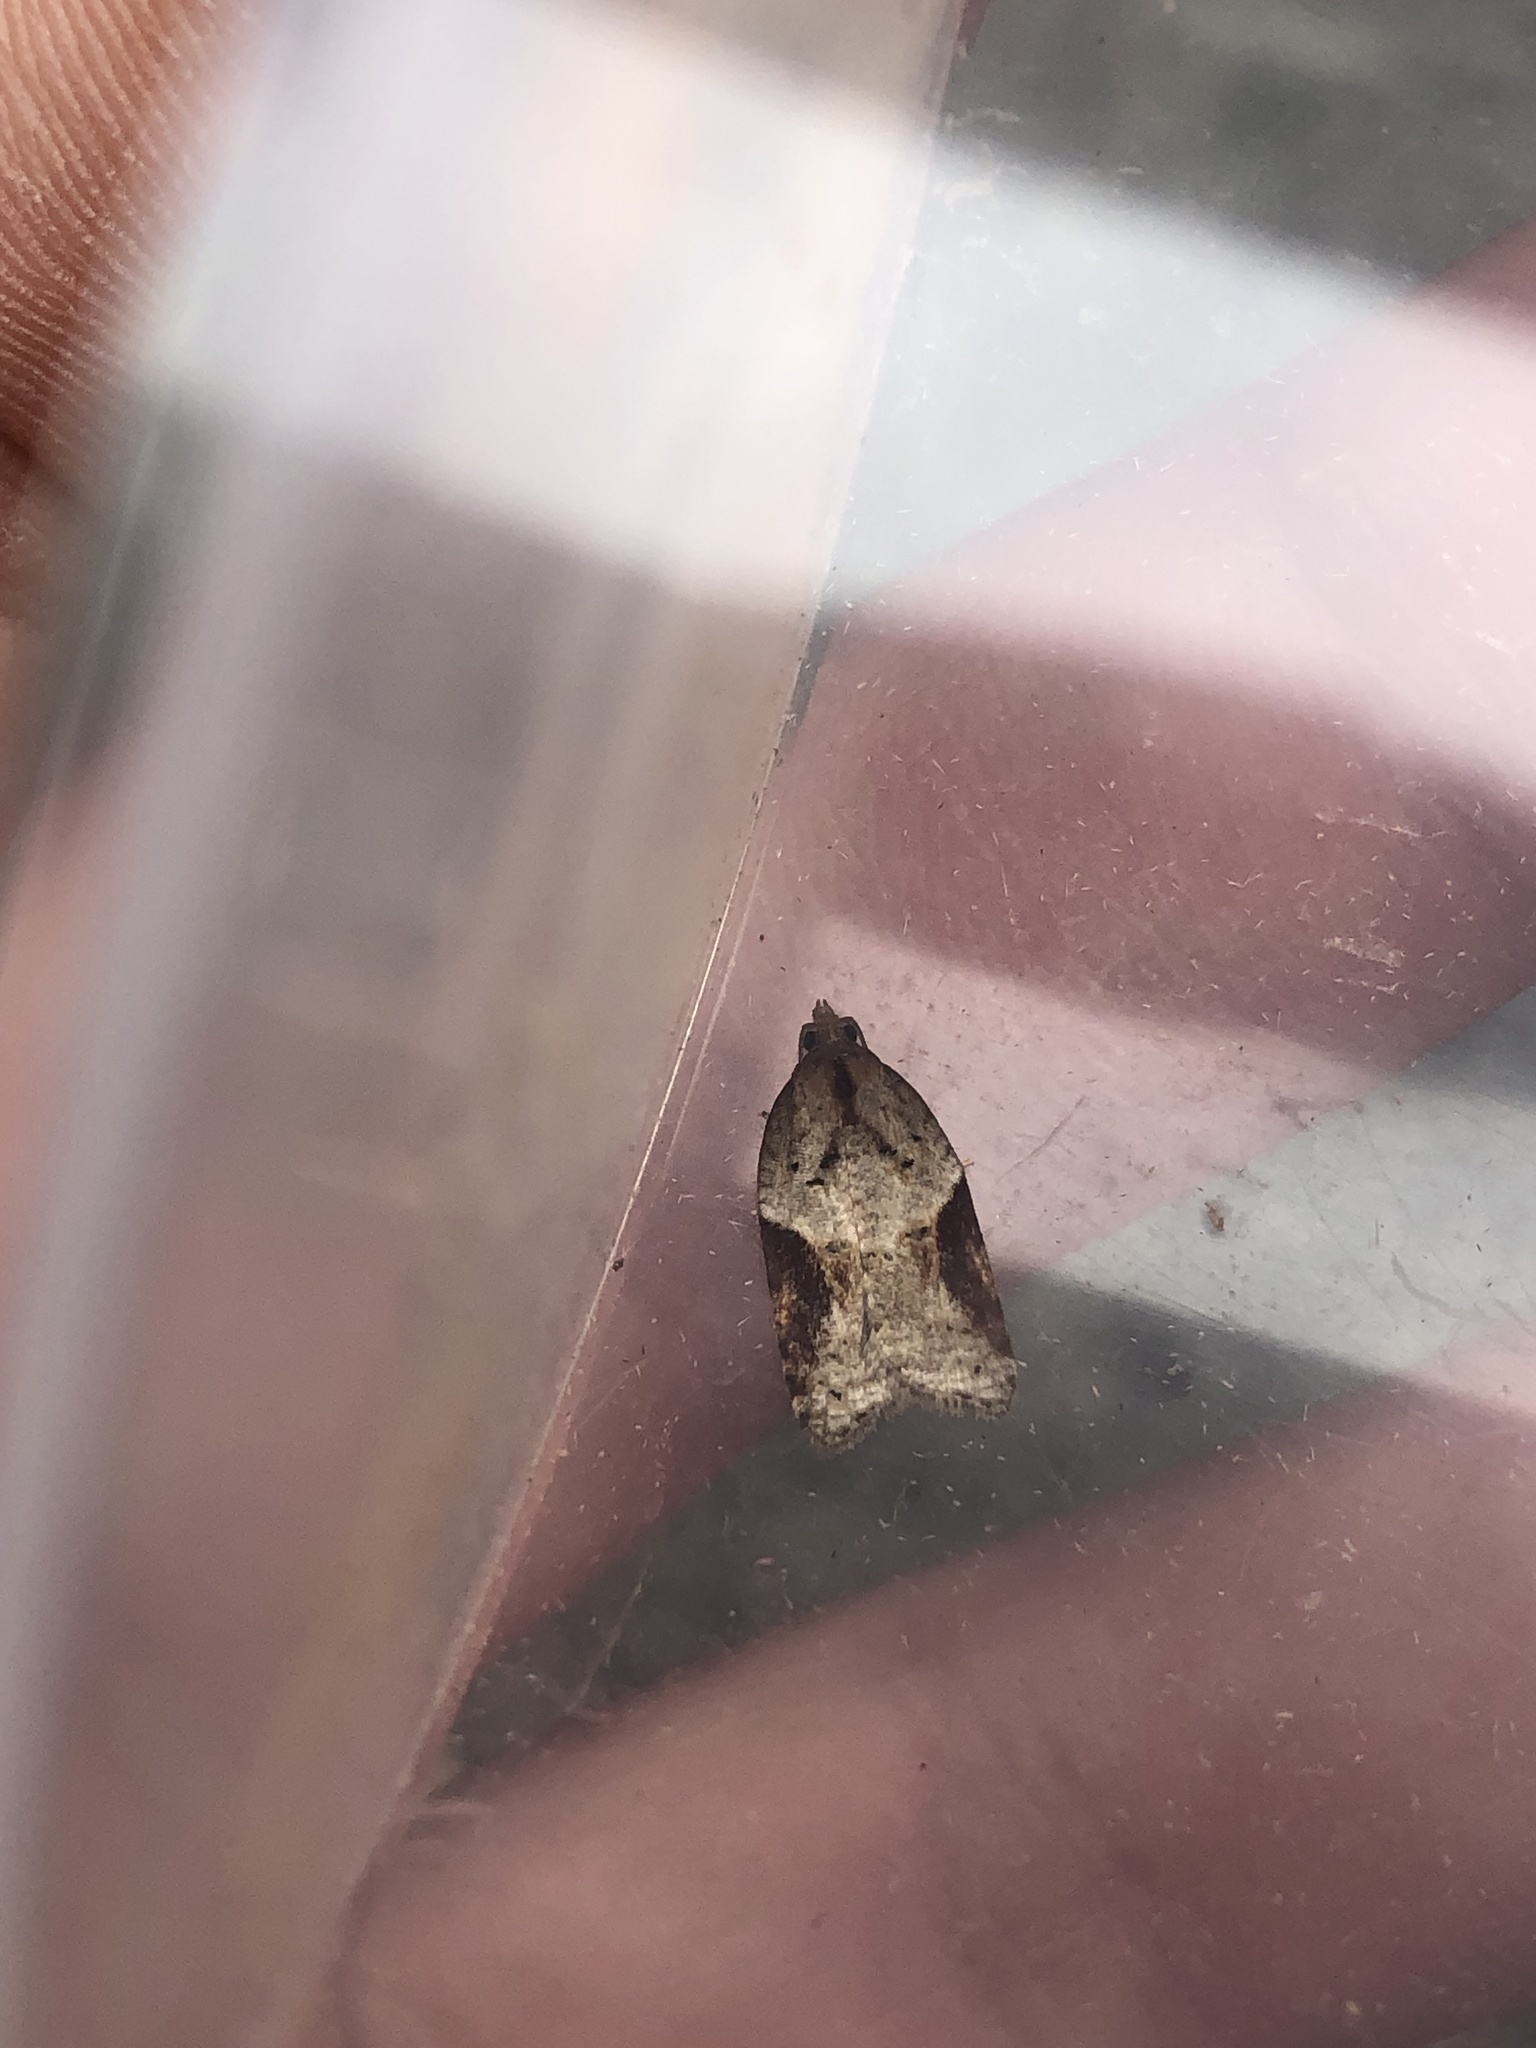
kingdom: Animalia
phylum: Arthropoda
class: Insecta
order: Lepidoptera
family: Tortricidae
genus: Acleris
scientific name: Acleris laterana
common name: Dark-triangle button
